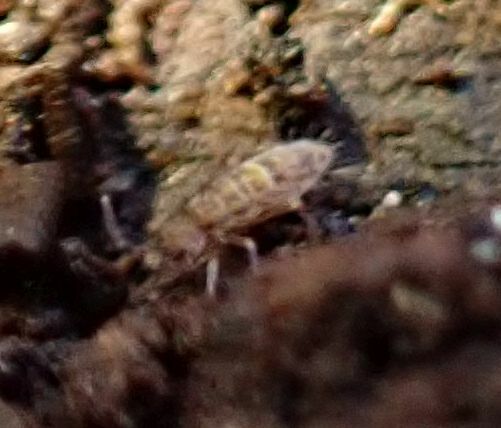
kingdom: Animalia
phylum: Arthropoda
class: Collembola
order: Entomobryomorpha
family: Orchesellidae
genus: Orchesella
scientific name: Orchesella cincta
